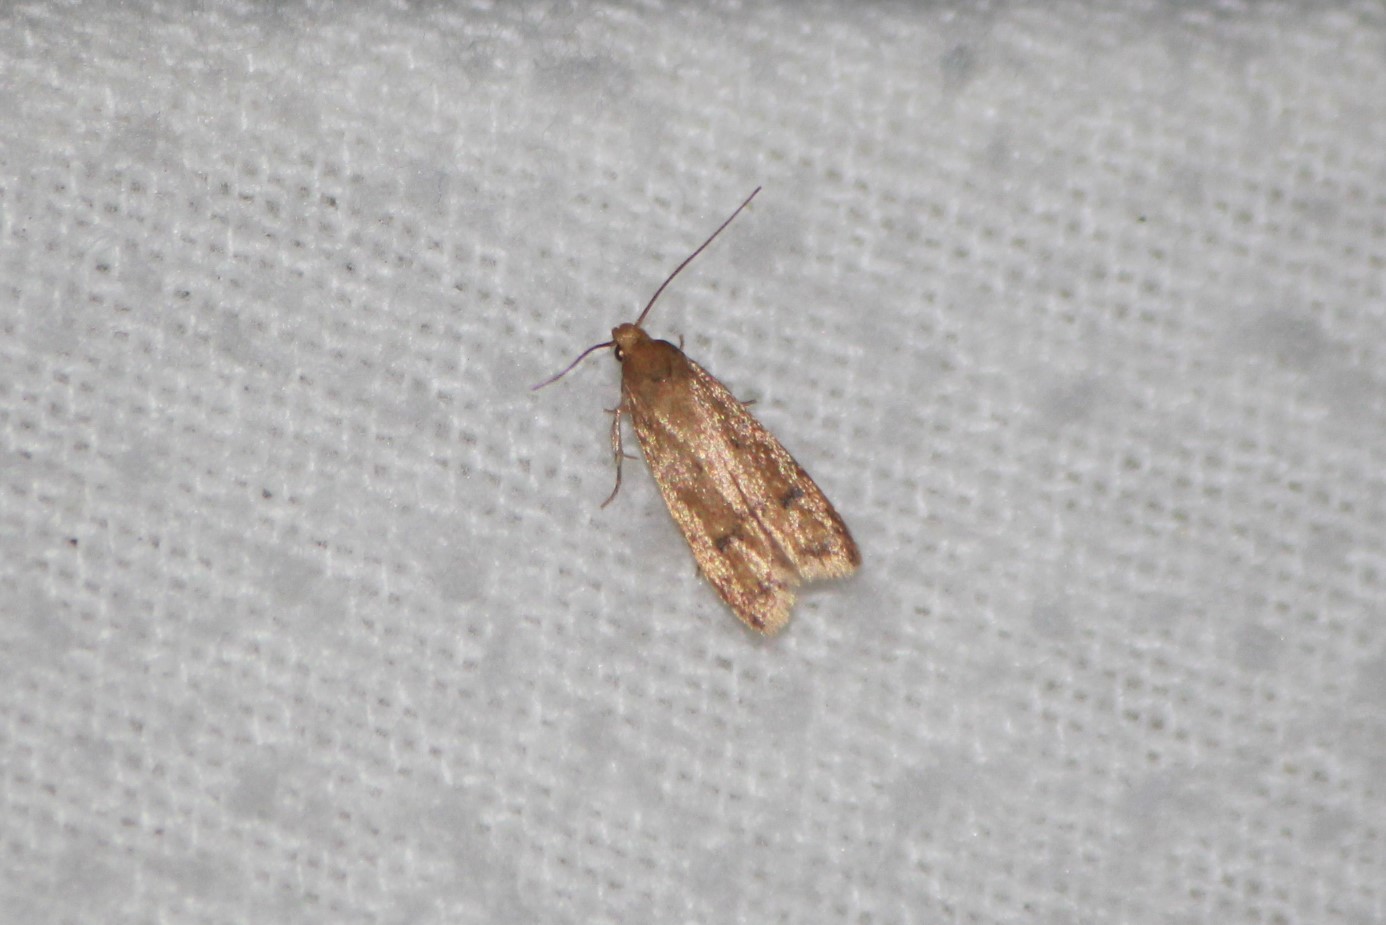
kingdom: Animalia
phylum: Arthropoda
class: Insecta
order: Lepidoptera
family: Autostichidae
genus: Gerdana
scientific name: Gerdana caritella
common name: Gerdana moth
